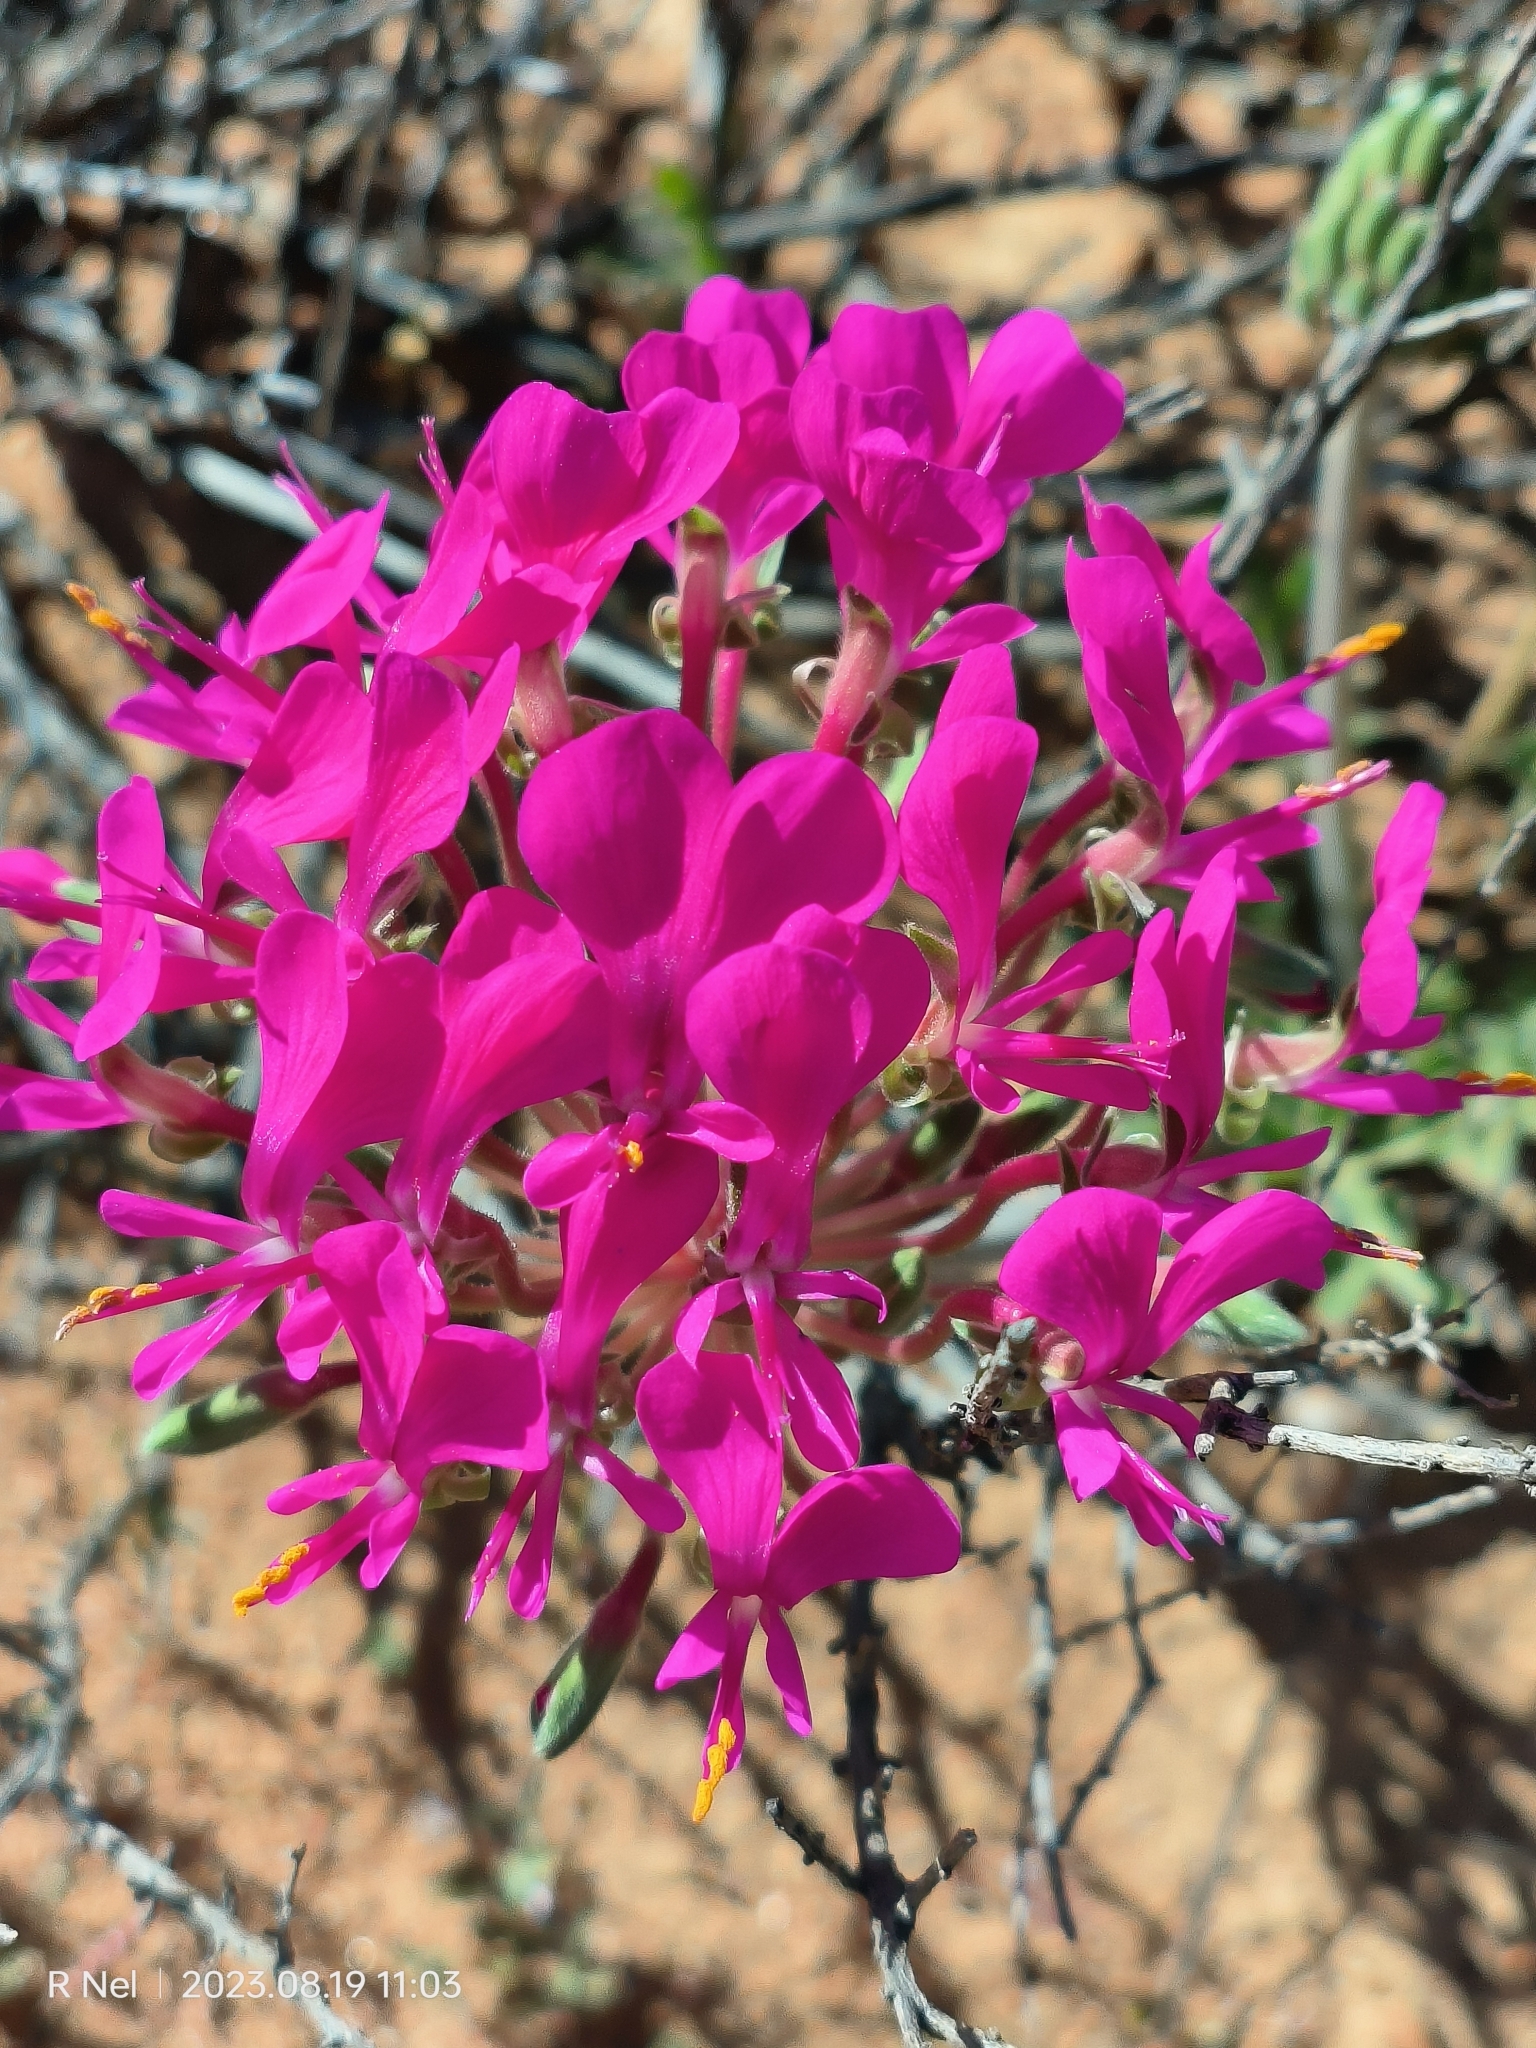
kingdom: Plantae
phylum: Tracheophyta
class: Magnoliopsida
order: Geraniales
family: Geraniaceae
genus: Pelargonium
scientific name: Pelargonium incrassatum
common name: Namaqualand beauty
